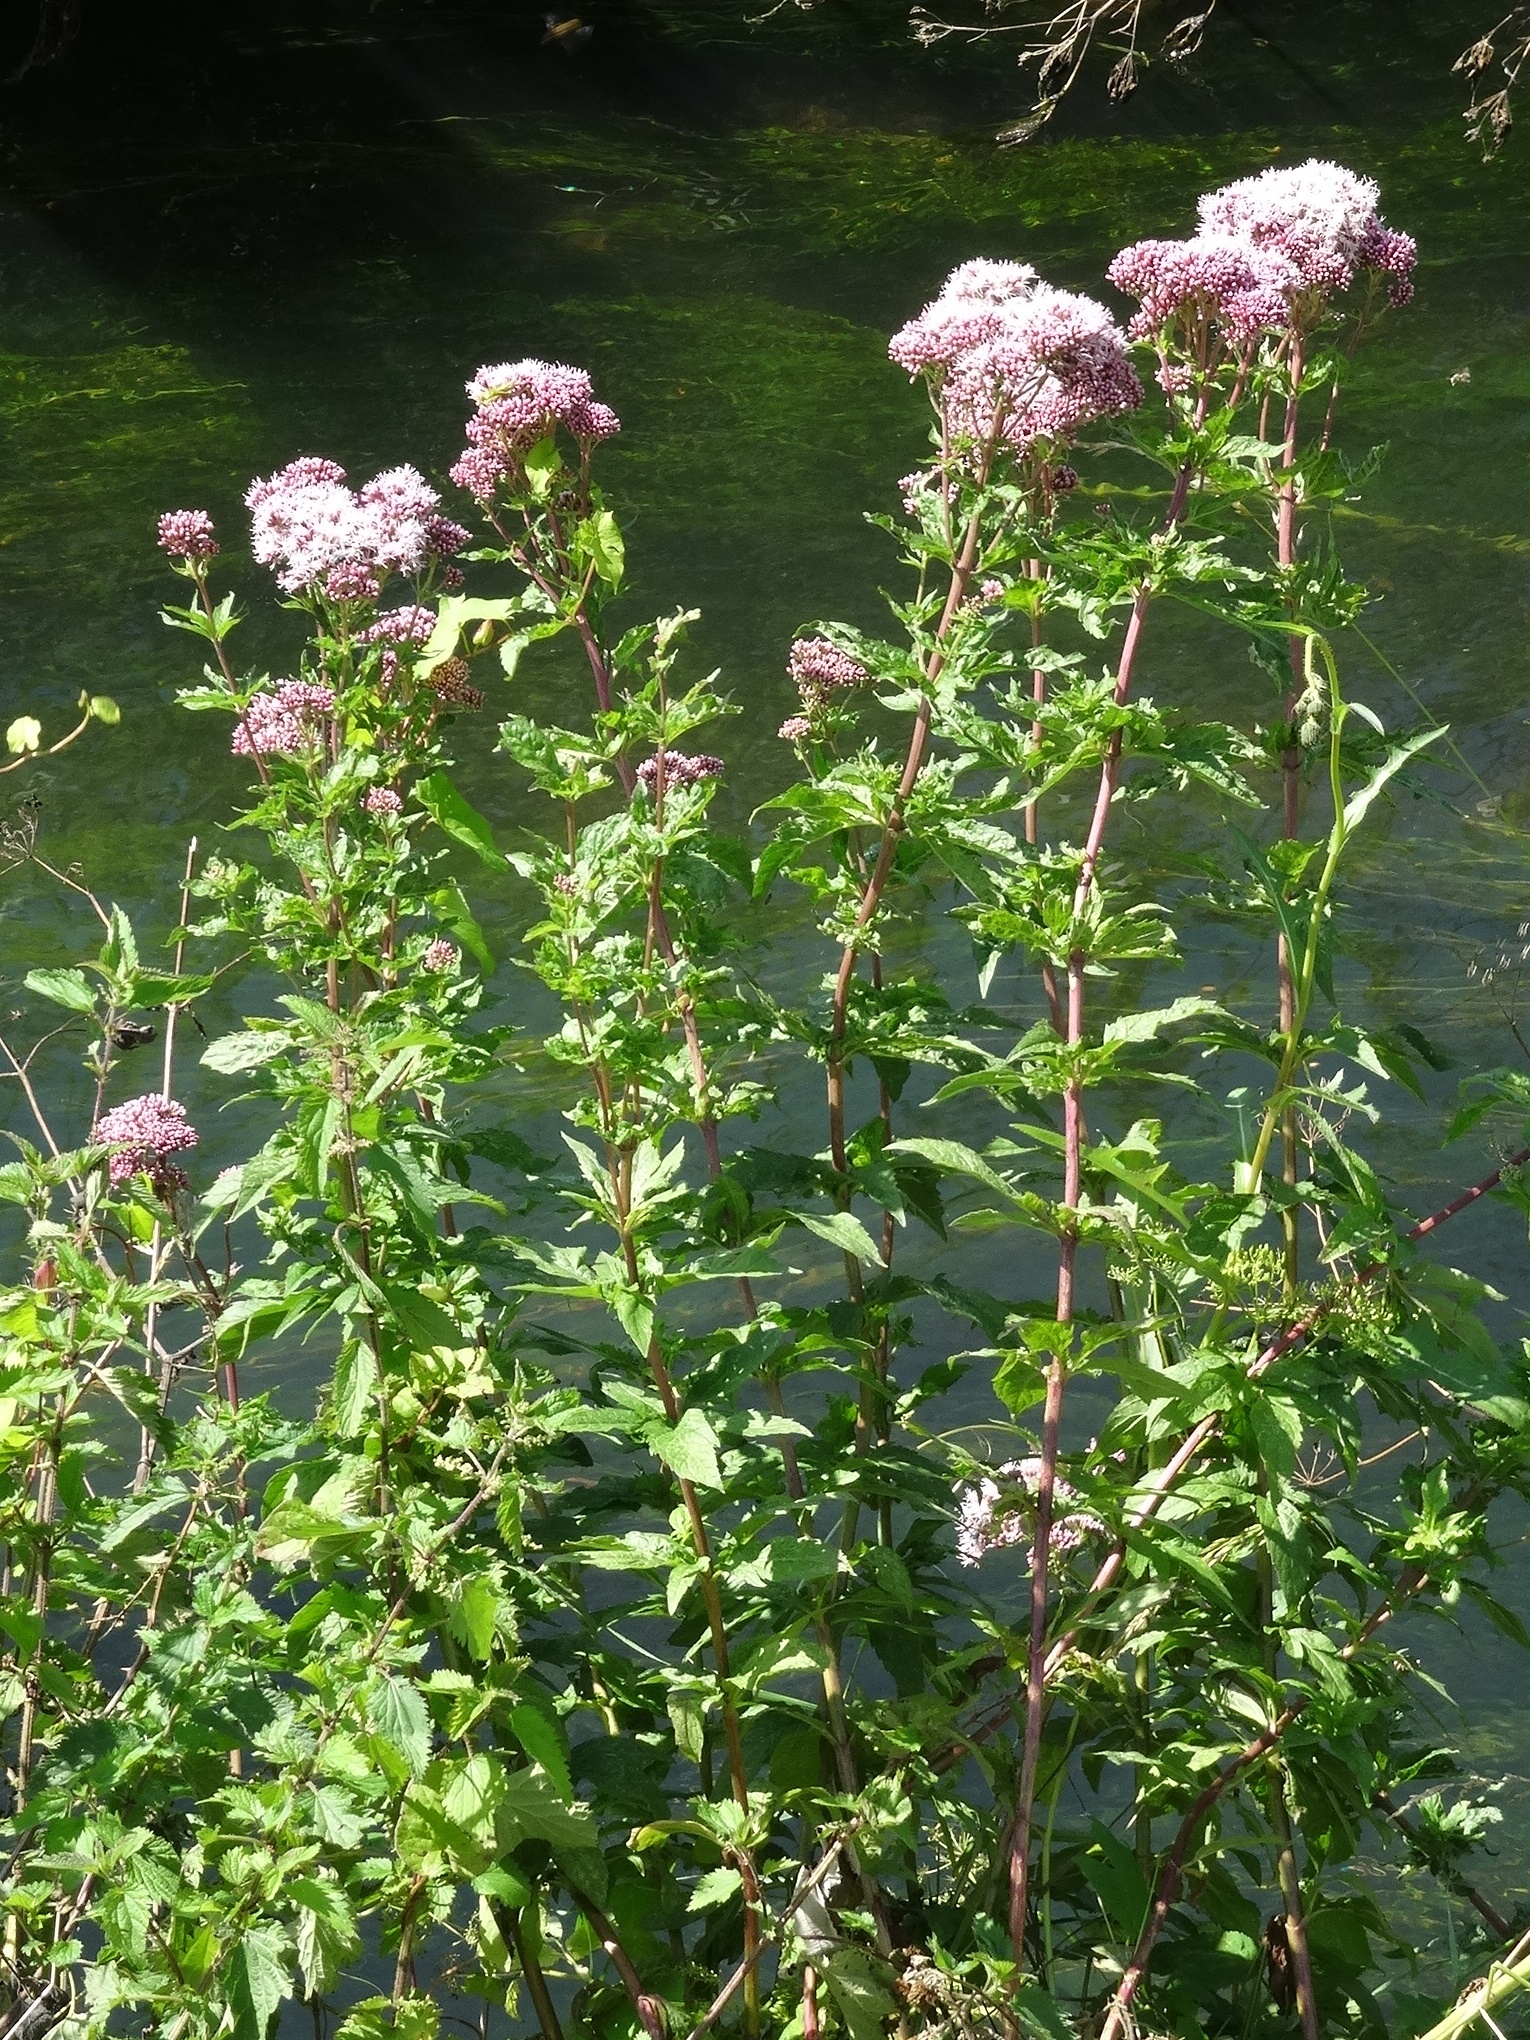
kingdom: Plantae
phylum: Tracheophyta
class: Magnoliopsida
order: Asterales
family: Asteraceae
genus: Eupatorium
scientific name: Eupatorium cannabinum
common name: Hemp-agrimony
